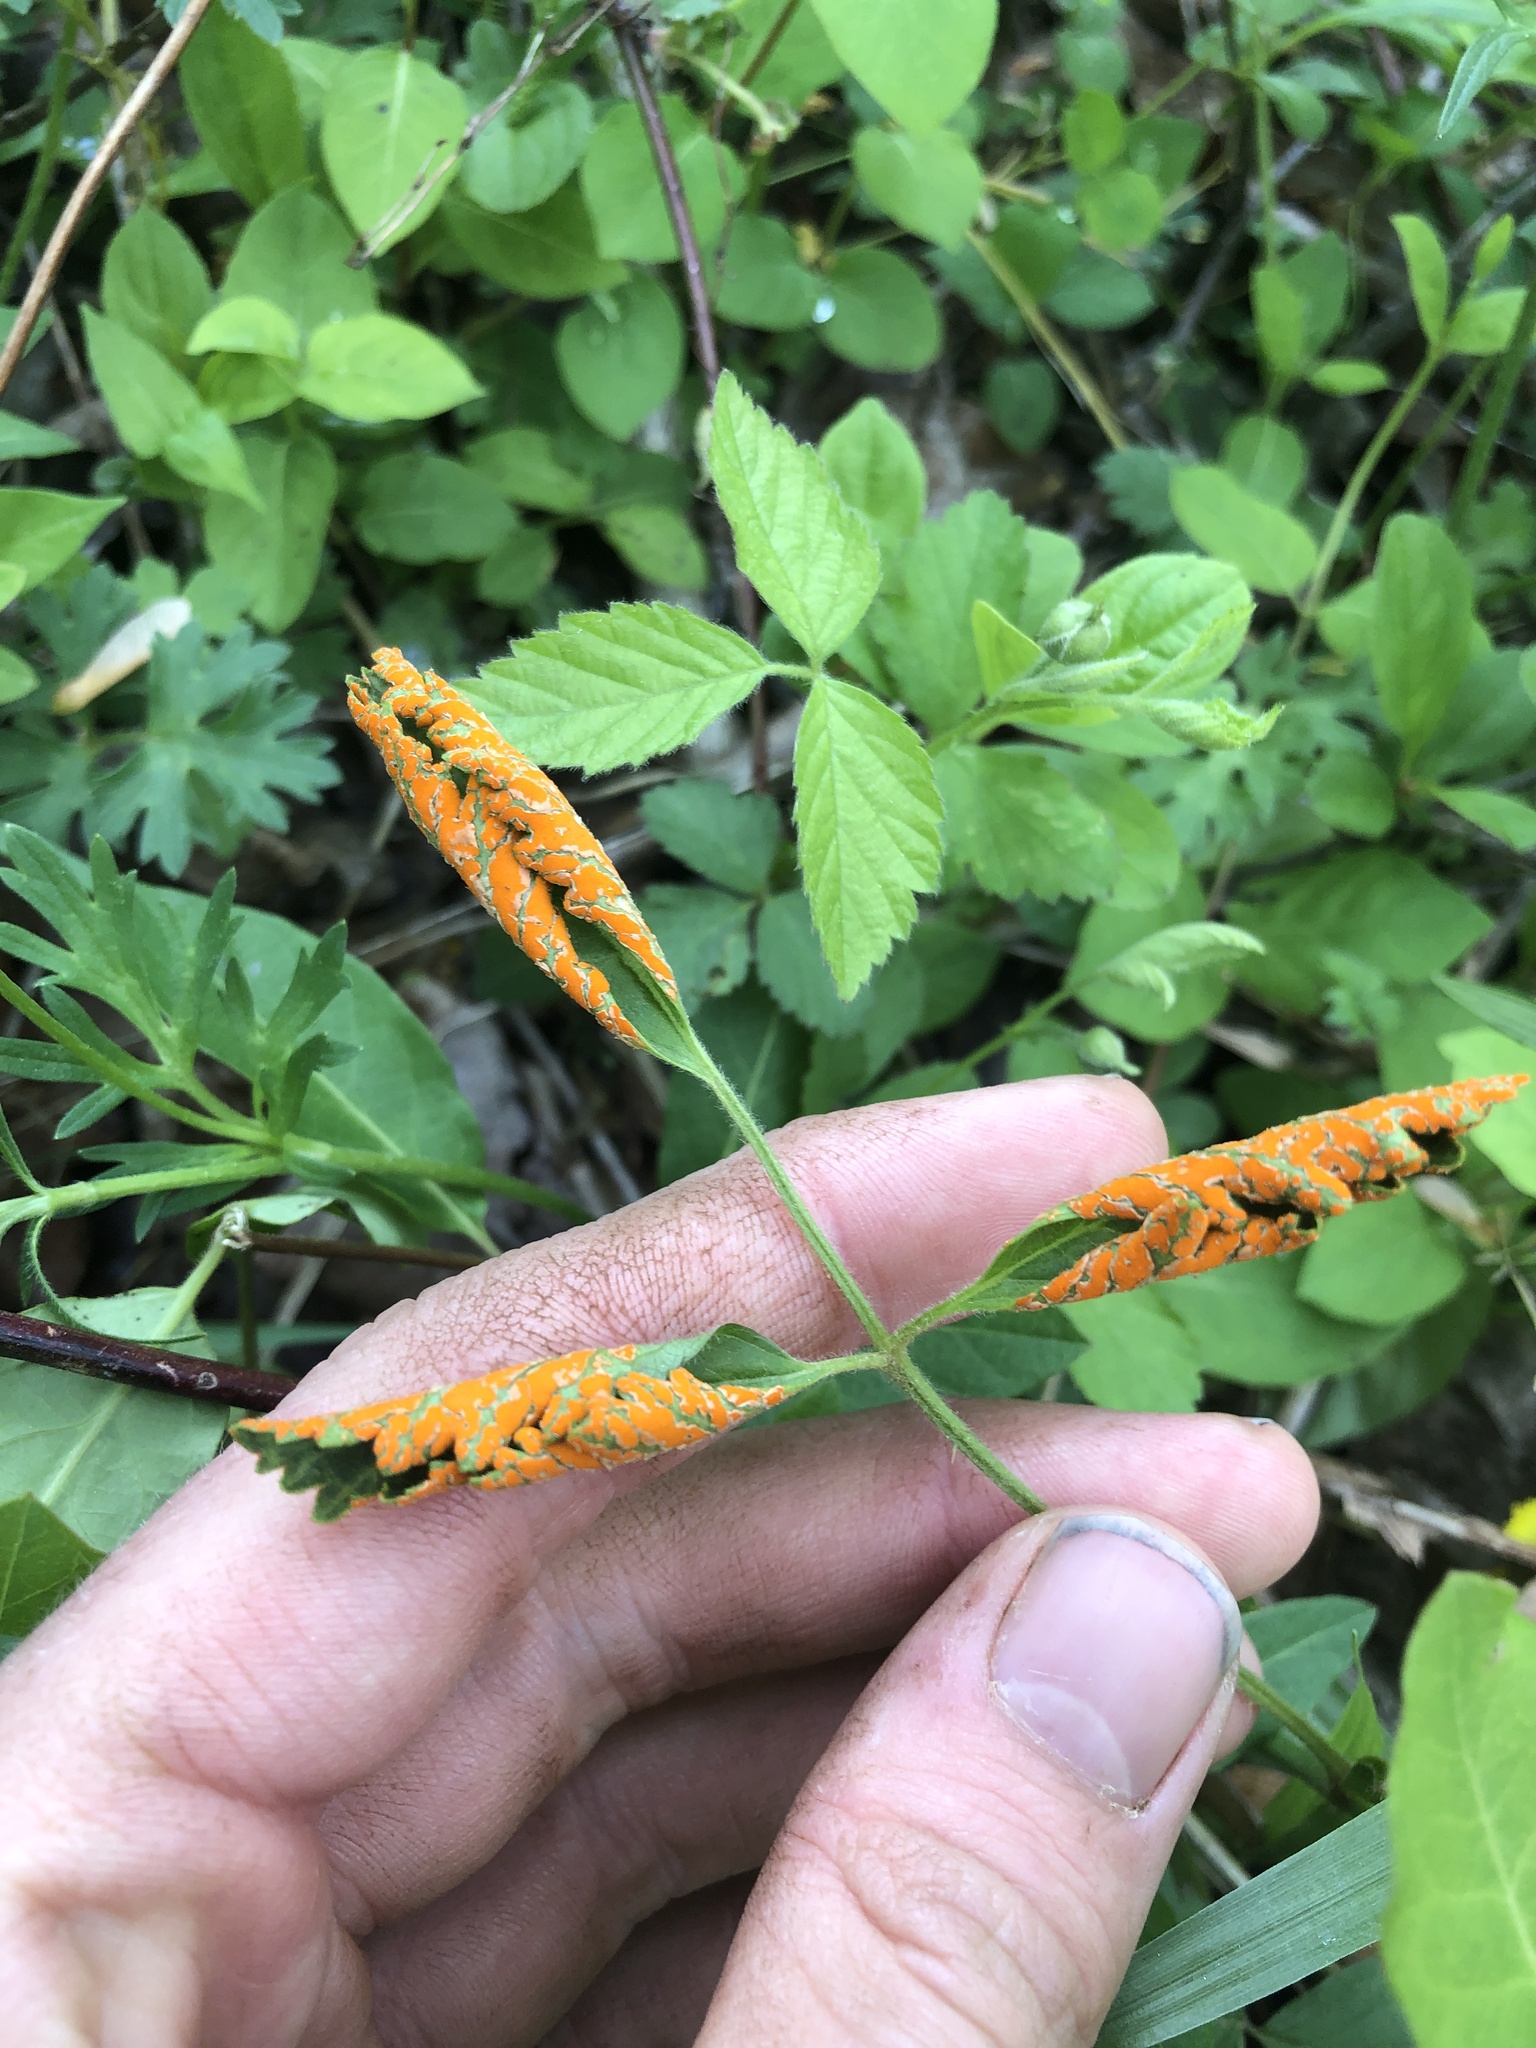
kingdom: Fungi
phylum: Basidiomycota
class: Pucciniomycetes
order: Pucciniales
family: Phragmidiaceae
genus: Arthuriomyces
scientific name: Arthuriomyces peckianus
